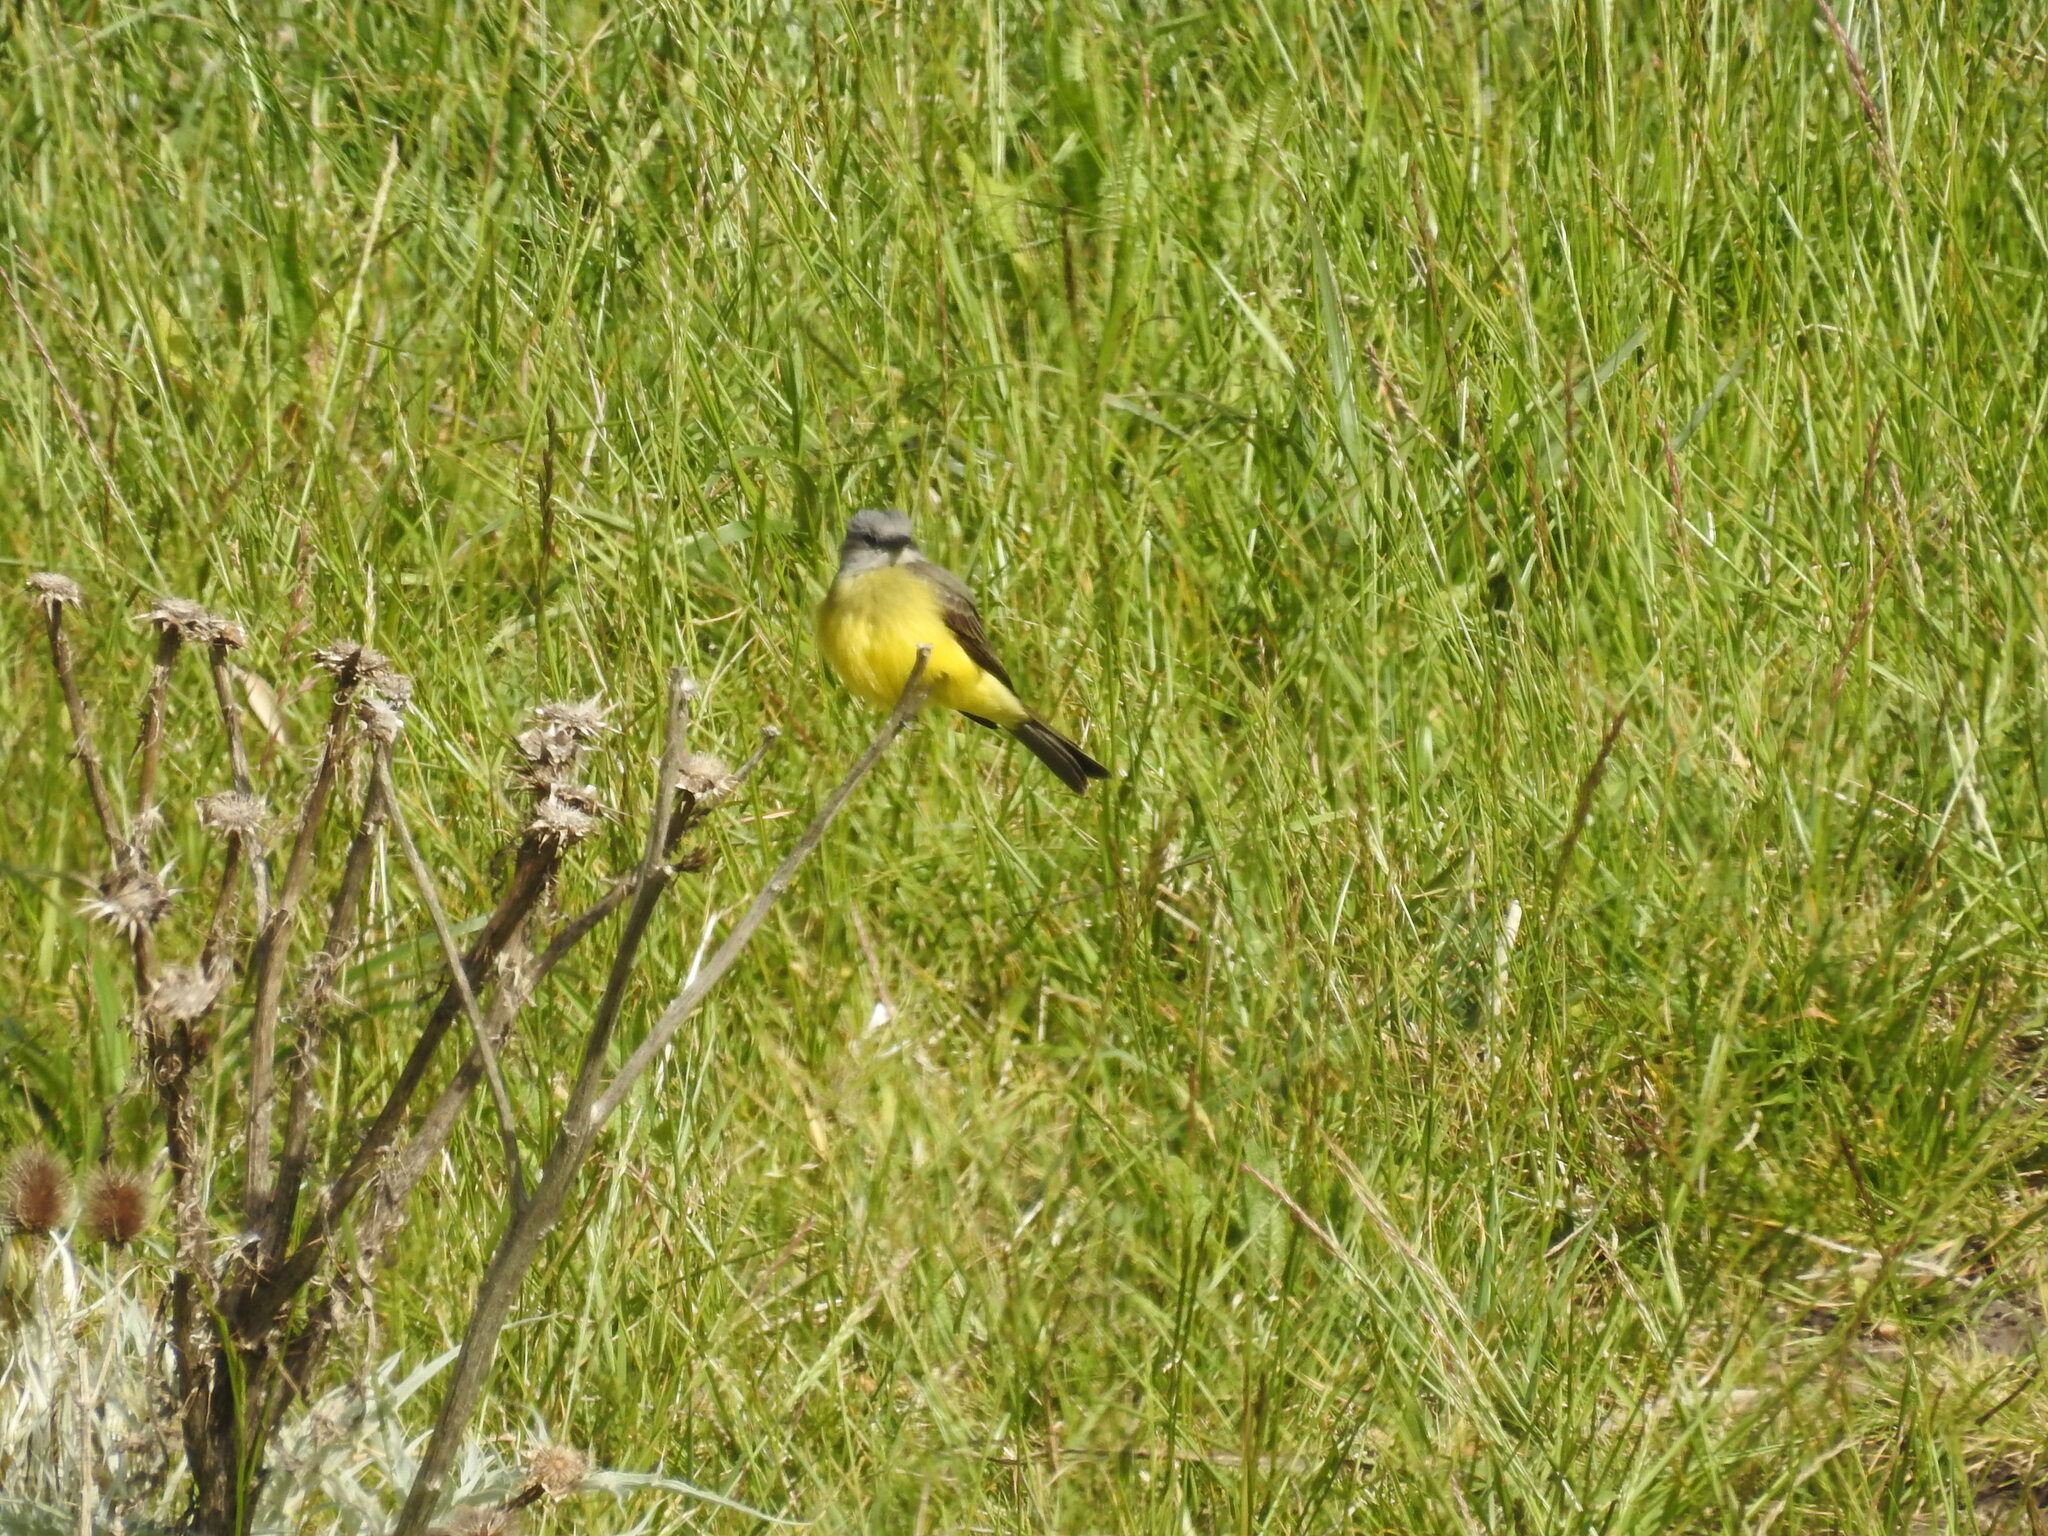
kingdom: Animalia
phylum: Chordata
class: Aves
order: Passeriformes
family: Tyrannidae
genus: Tyrannus
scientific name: Tyrannus melancholicus
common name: Tropical kingbird
